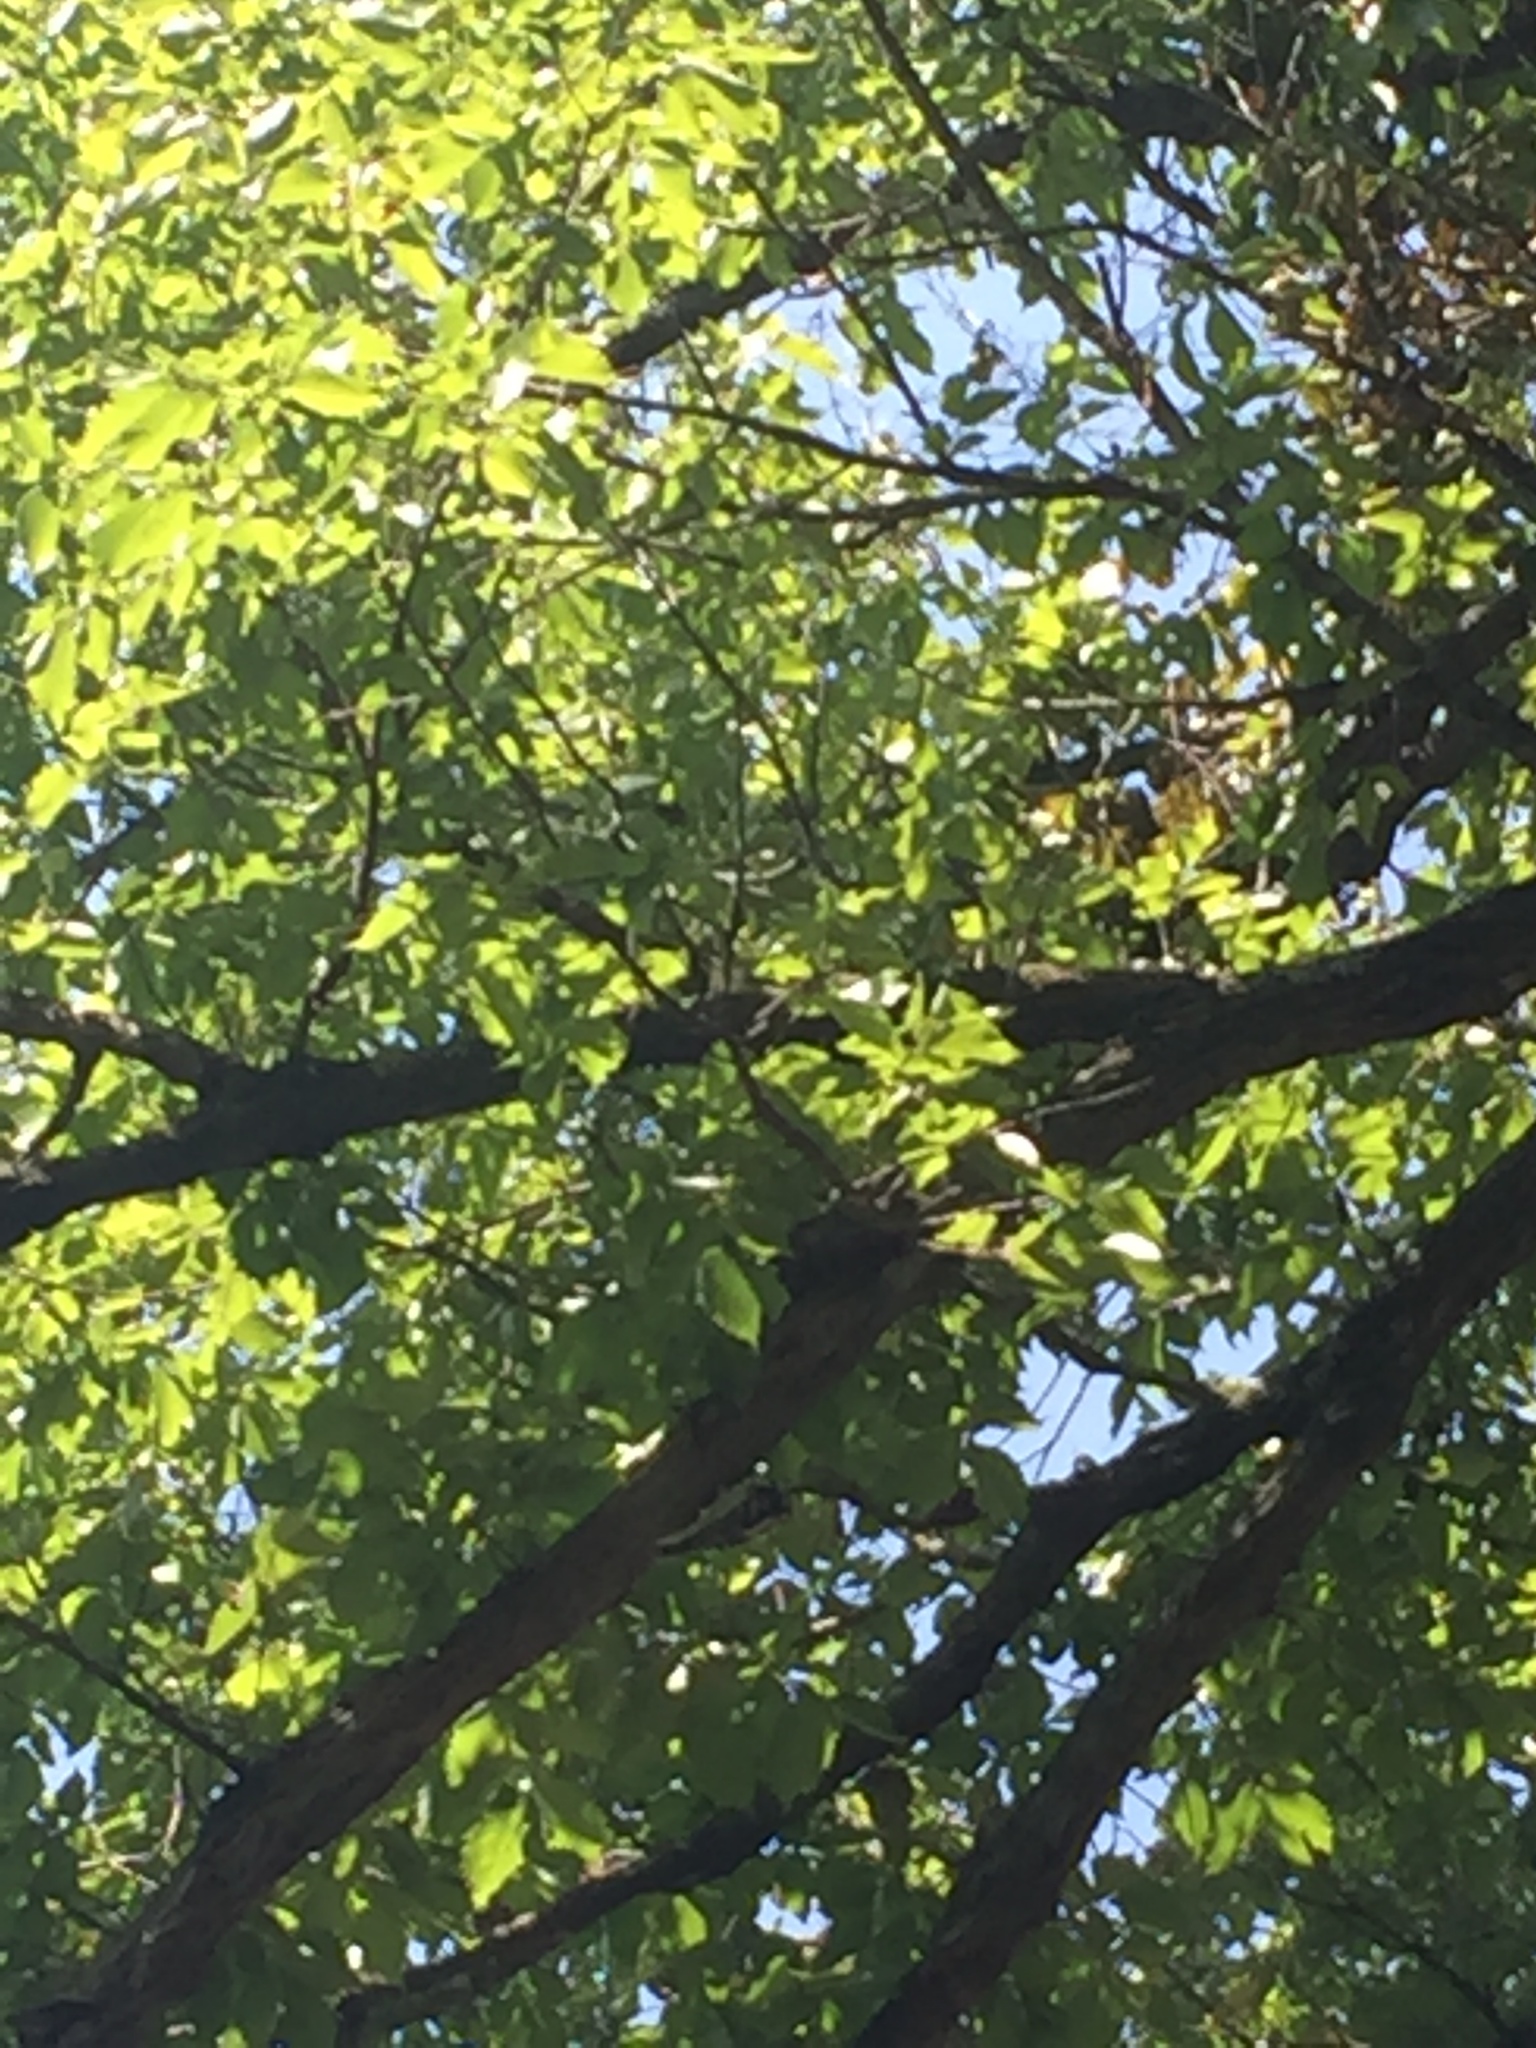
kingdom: Animalia
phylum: Chordata
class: Aves
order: Piciformes
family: Picidae
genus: Dryobates
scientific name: Dryobates pubescens
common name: Downy woodpecker
